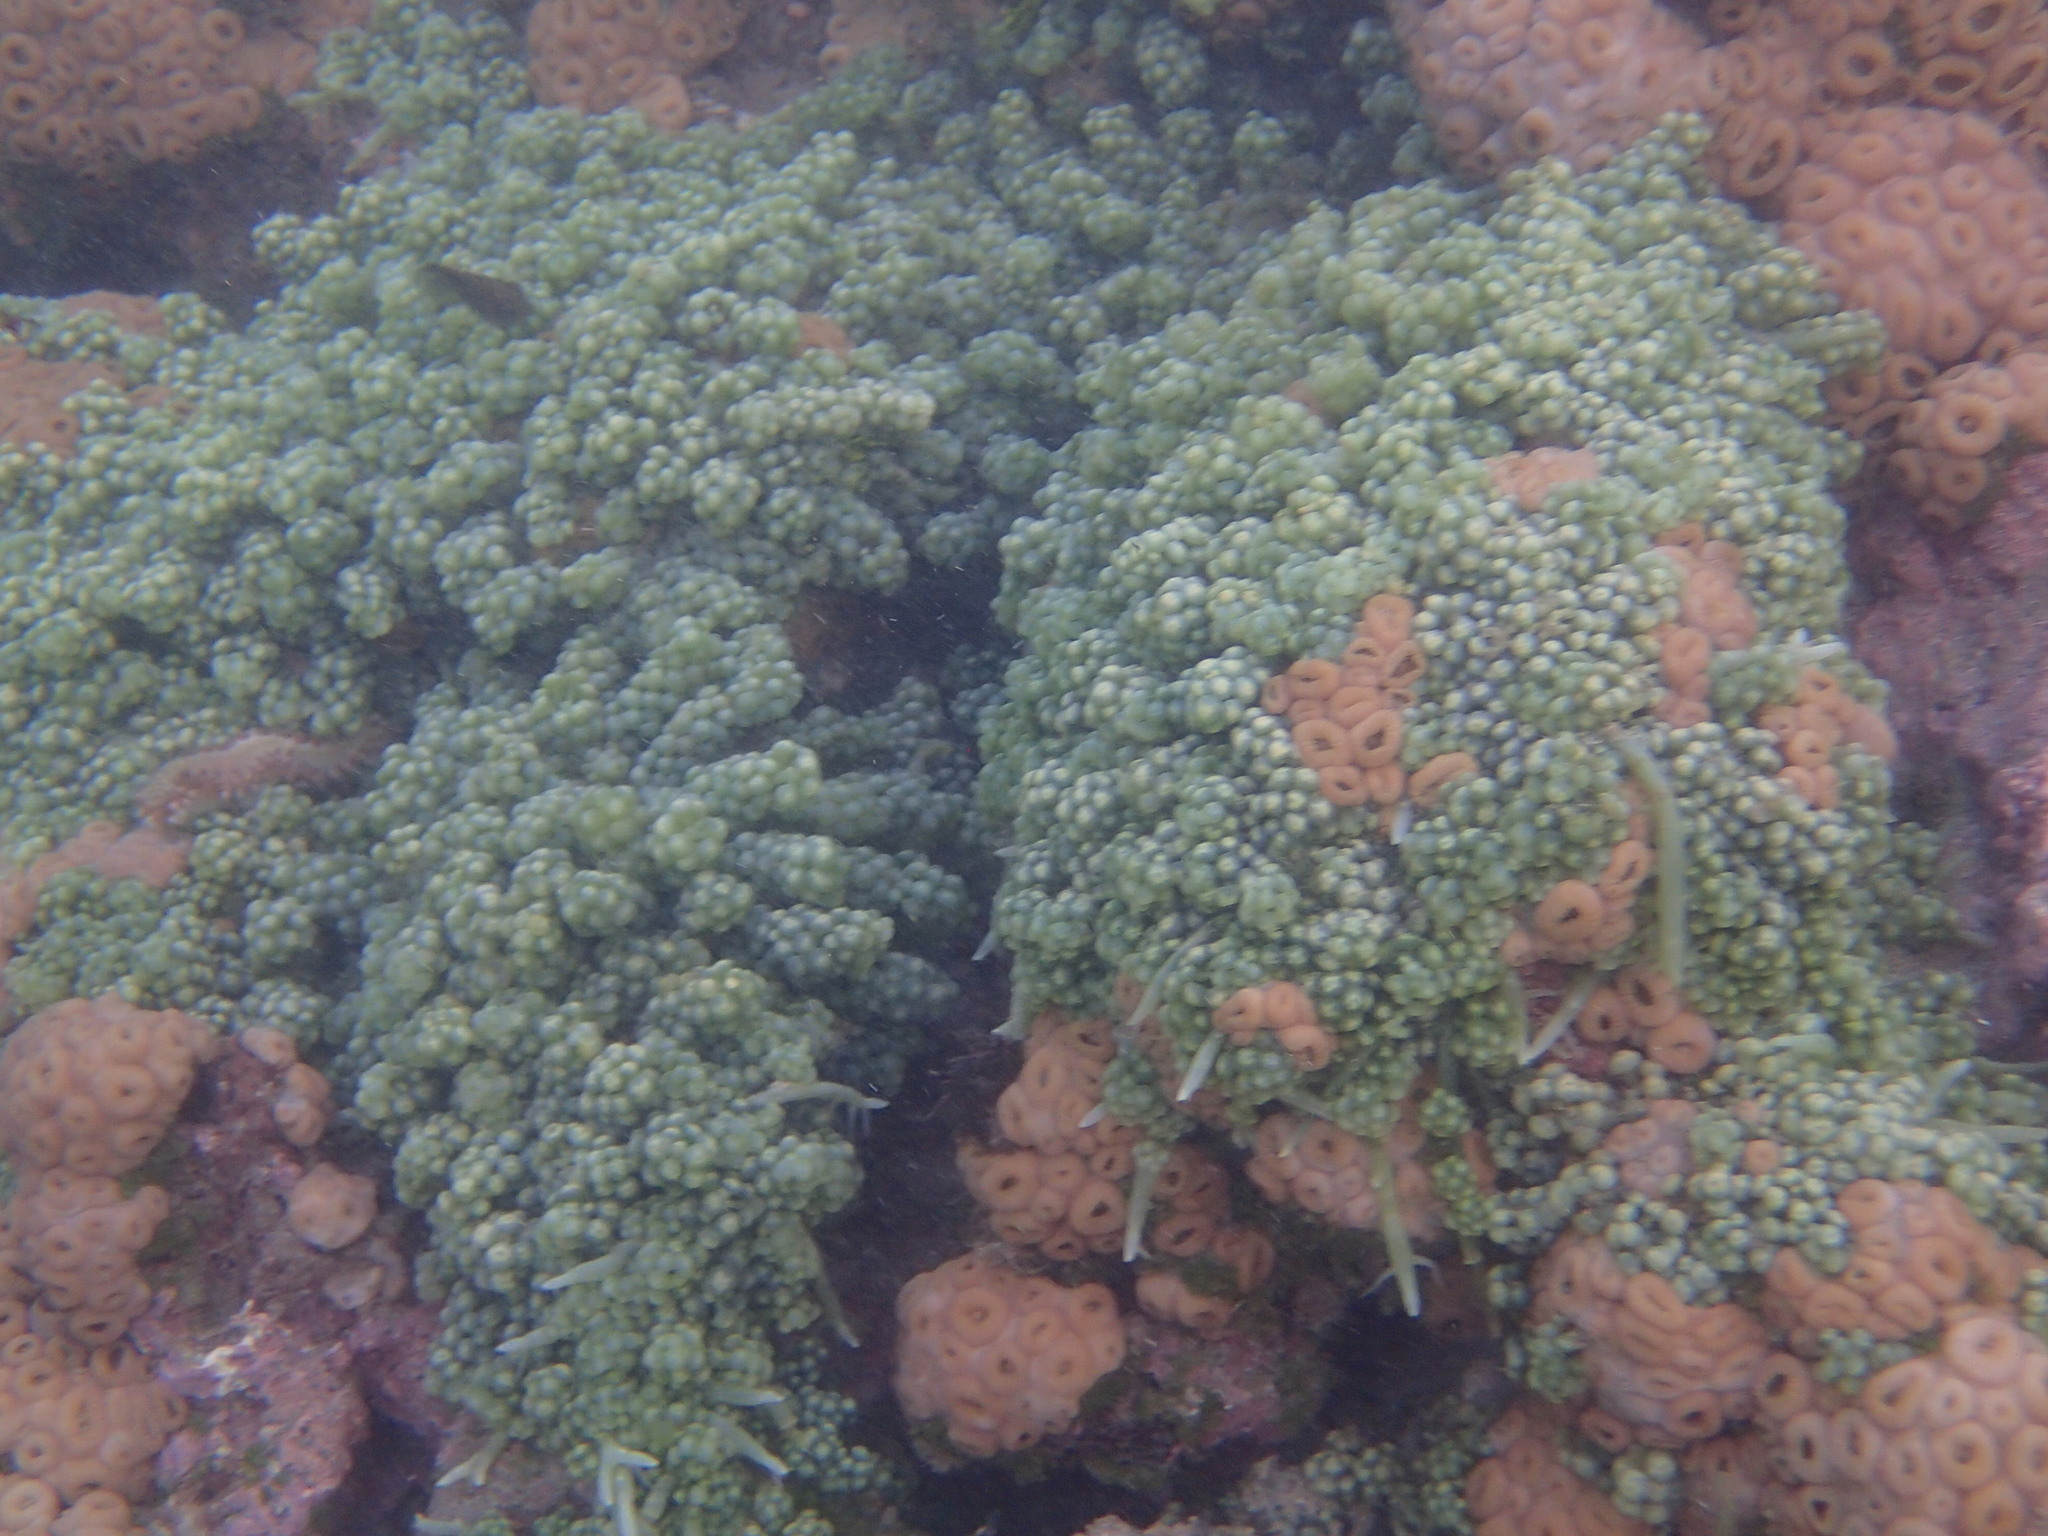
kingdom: Plantae
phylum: Chlorophyta
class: Ulvophyceae
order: Bryopsidales
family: Caulerpaceae
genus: Caulerpa
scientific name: Caulerpa racemosa
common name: Green grape algae
